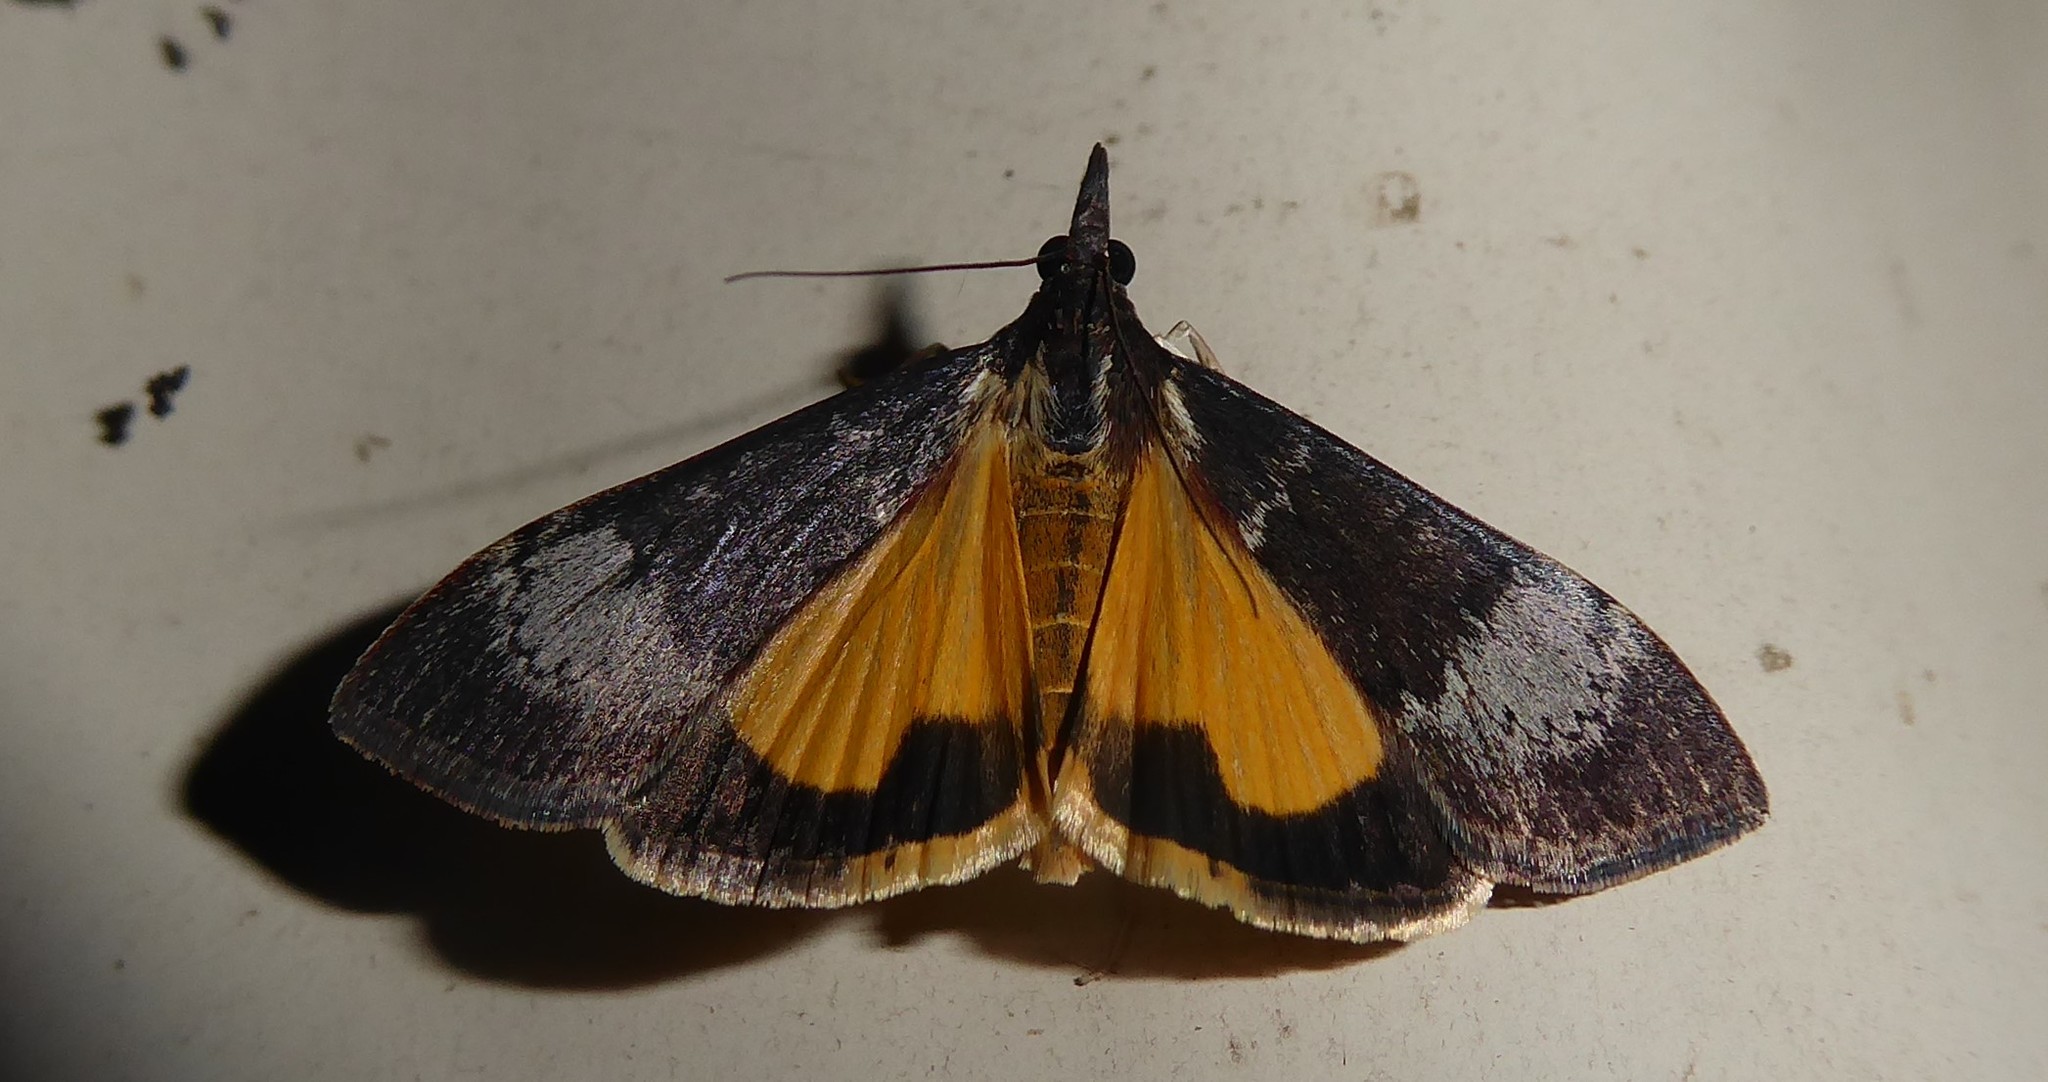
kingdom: Animalia
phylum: Arthropoda
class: Insecta
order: Lepidoptera
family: Crambidae
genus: Uresiphita
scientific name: Uresiphita ornithopteralis
